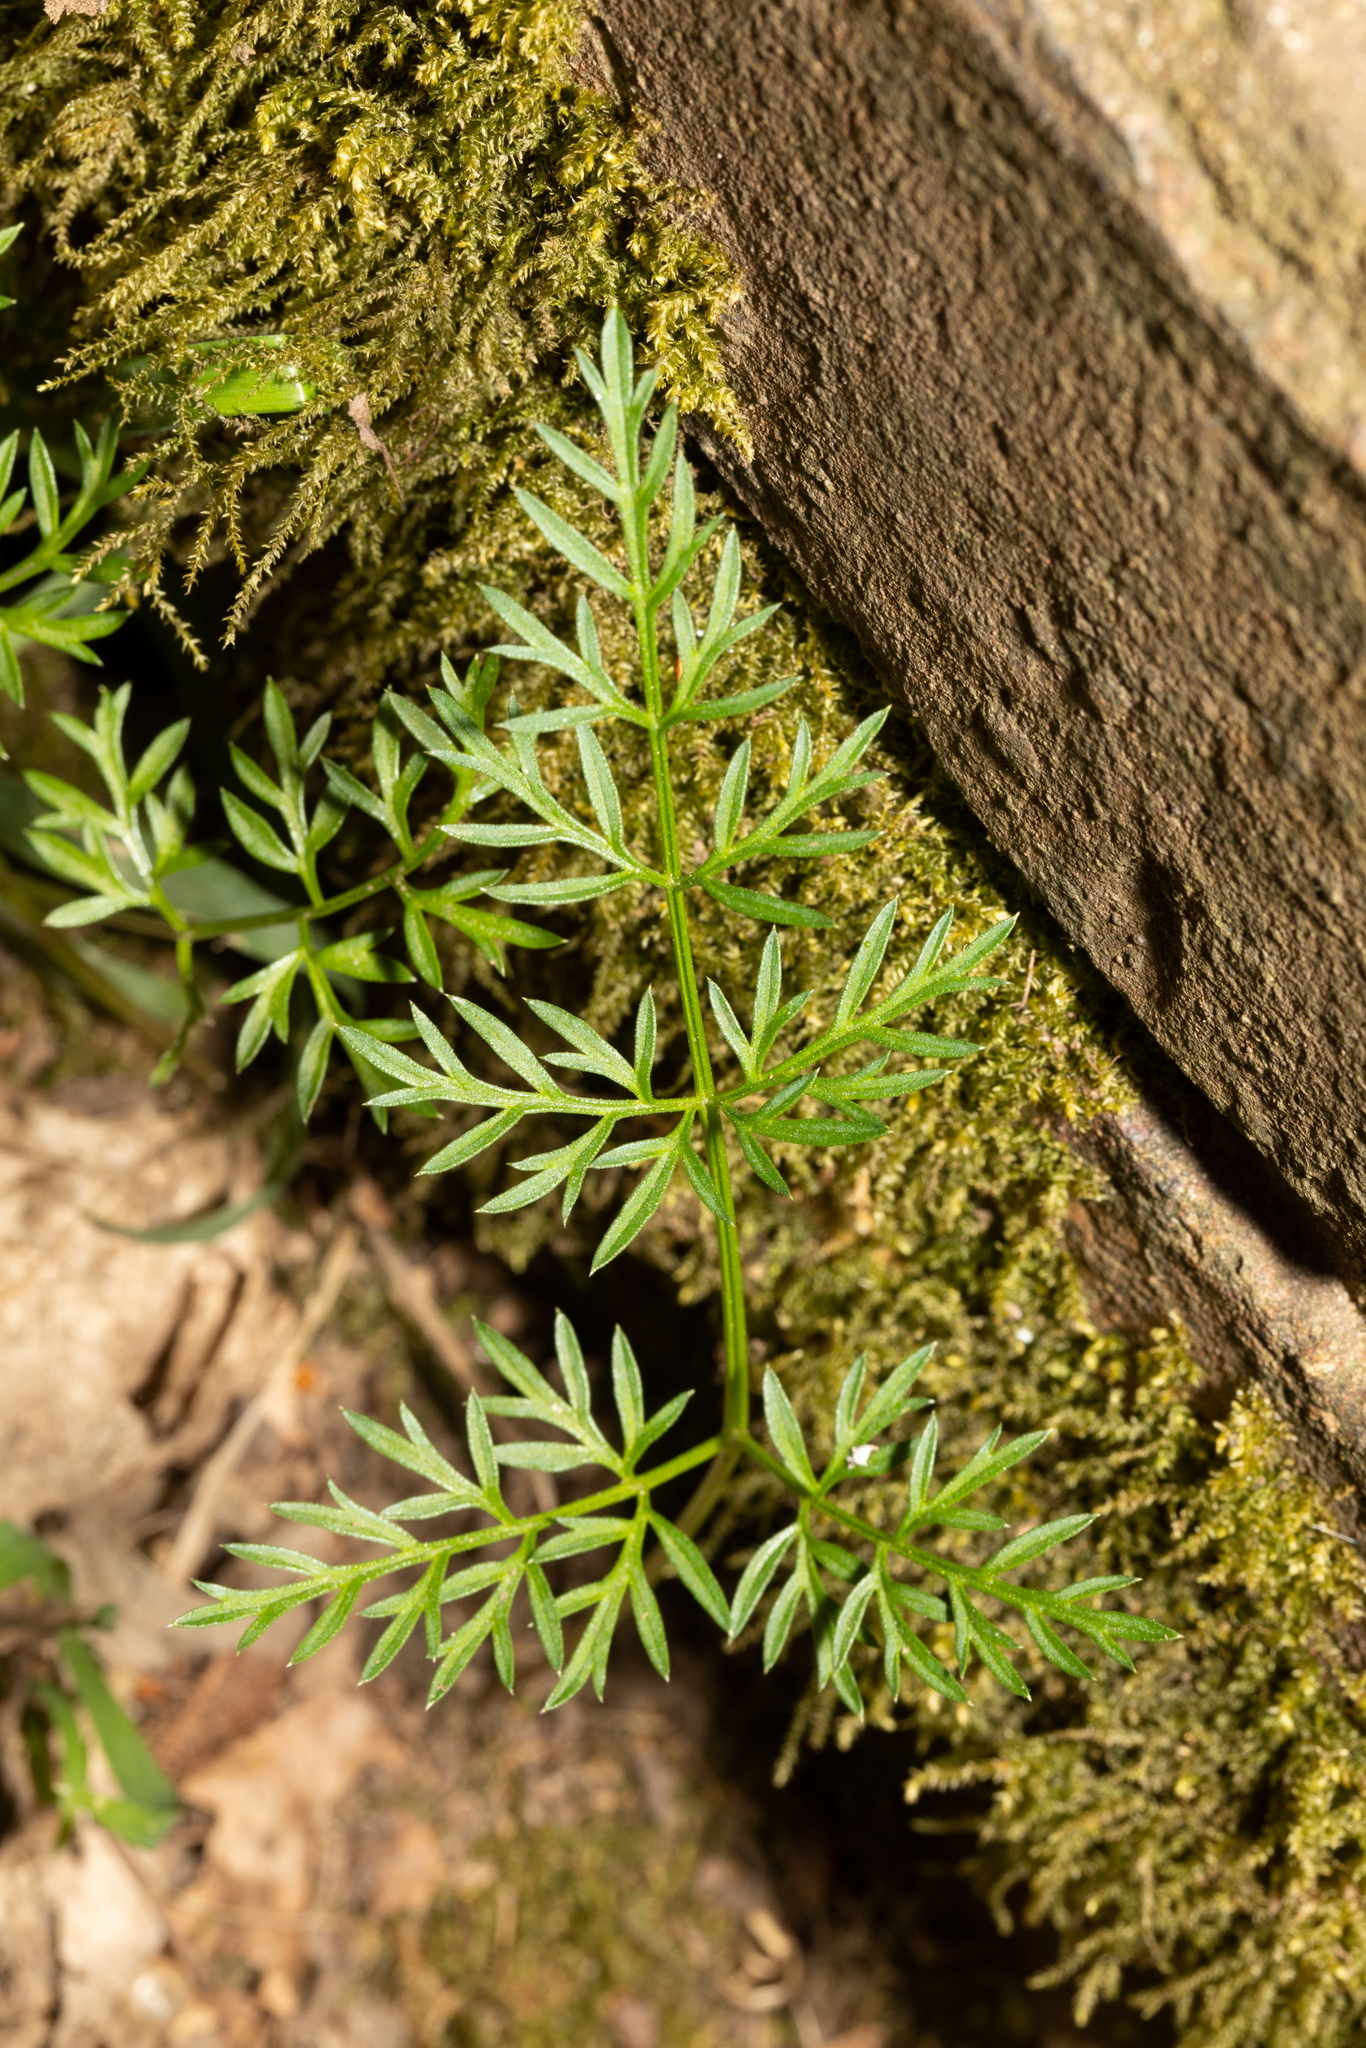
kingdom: Plantae
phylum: Tracheophyta
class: Magnoliopsida
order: Apiales
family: Apiaceae
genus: Conopodium
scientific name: Conopodium majus
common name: Pignut
